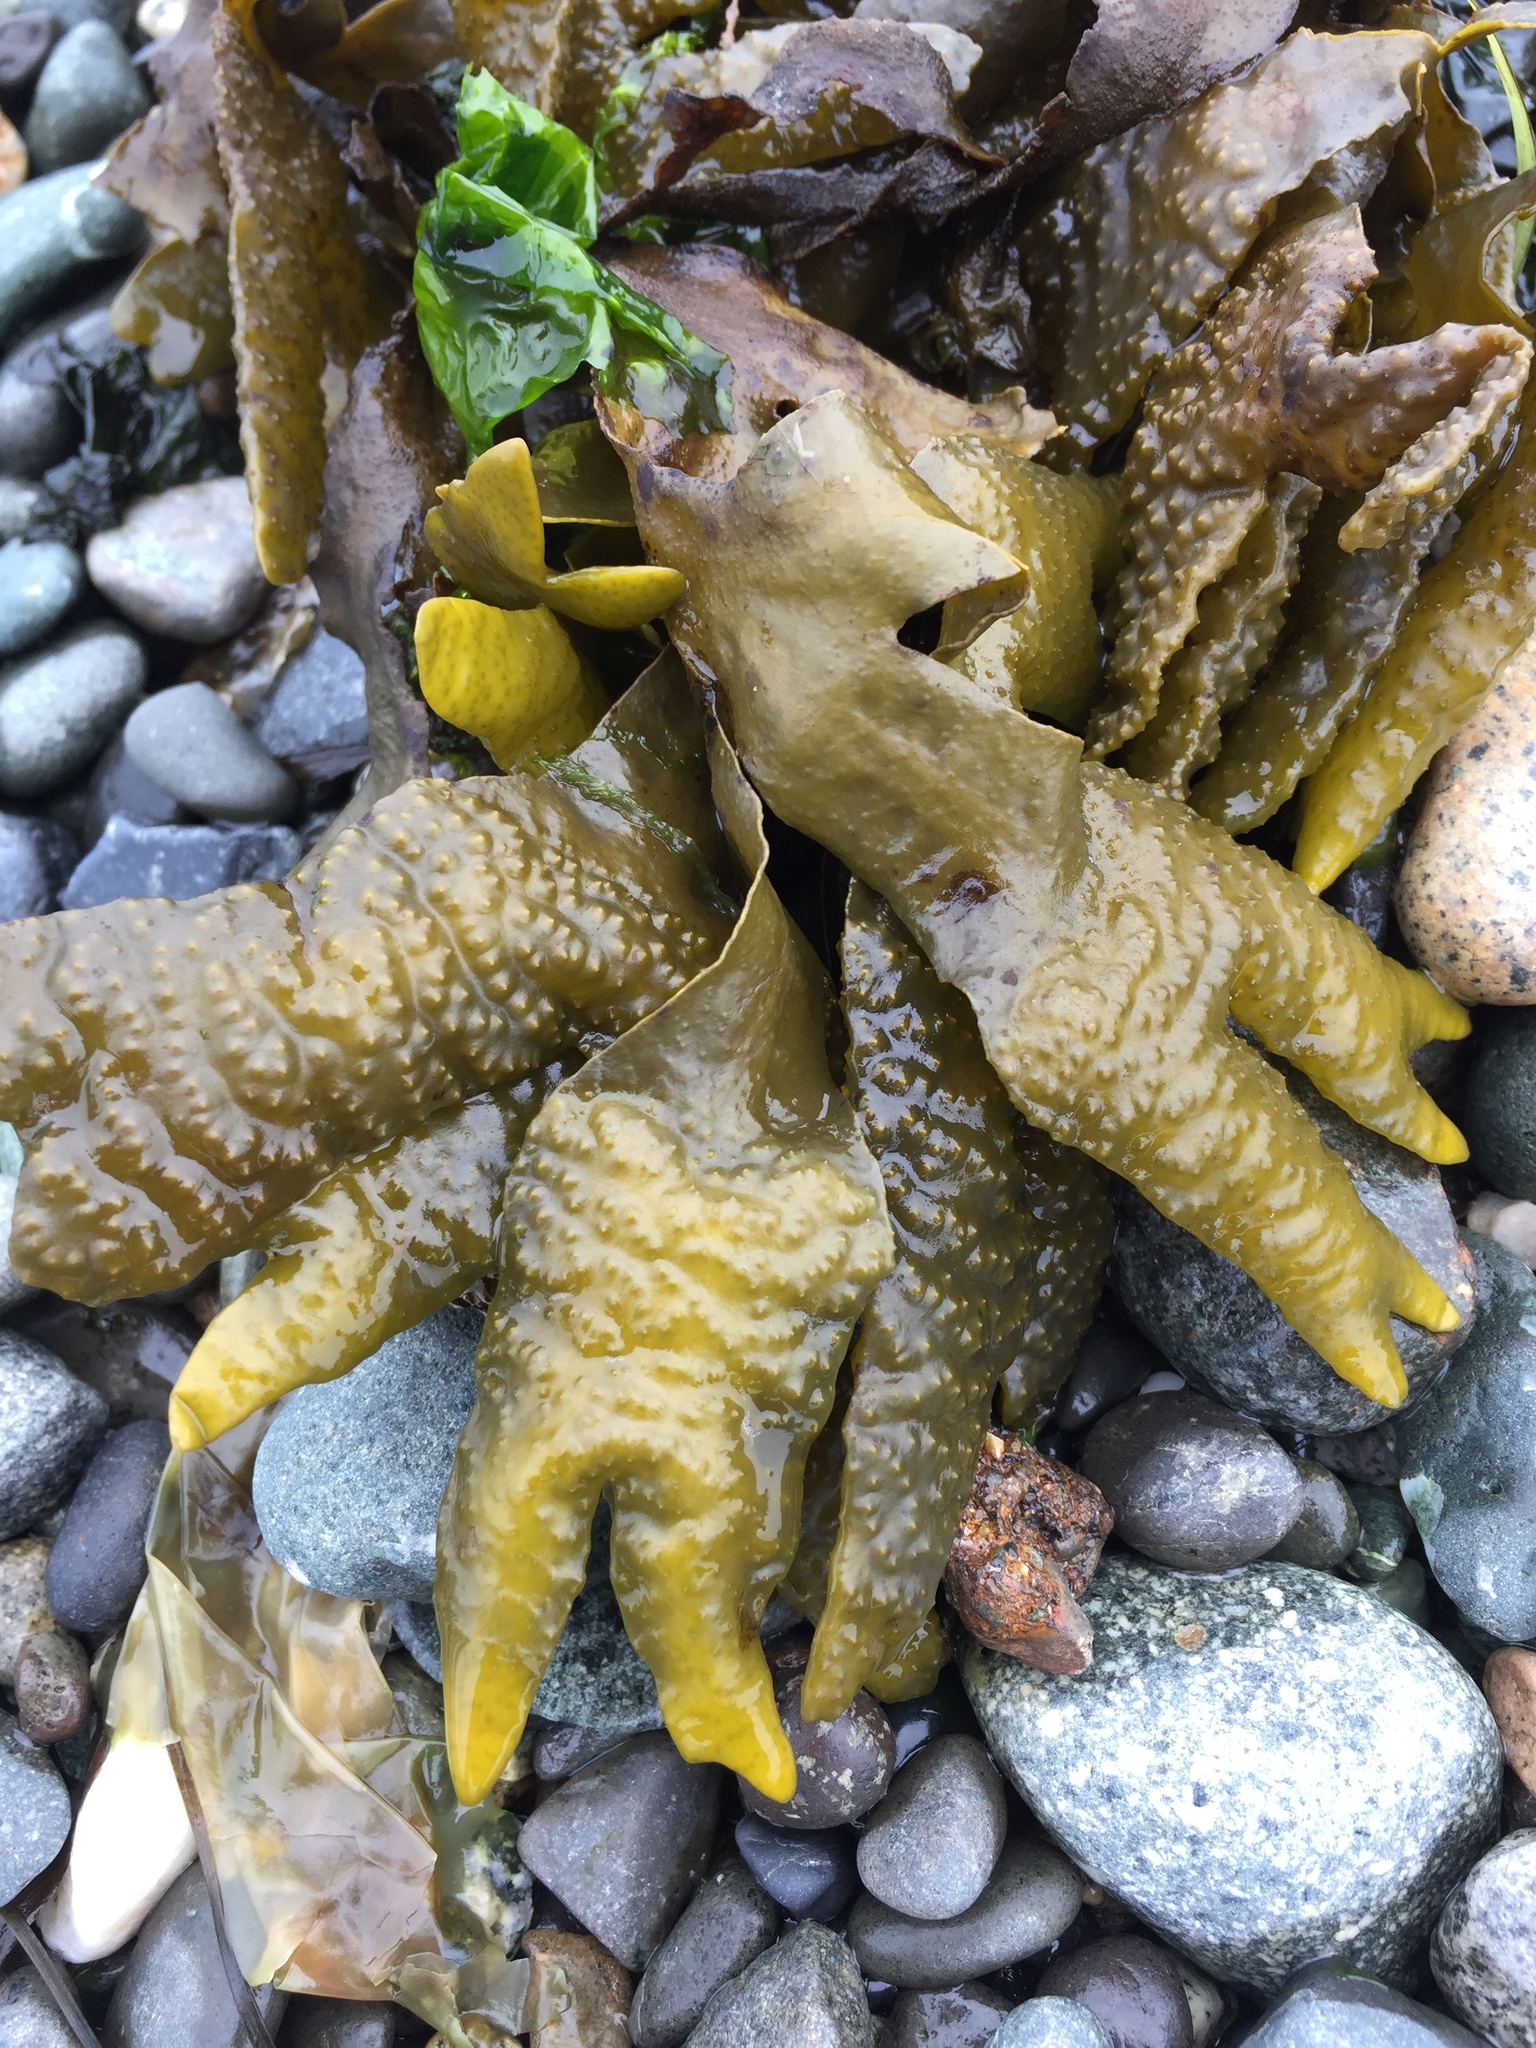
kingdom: Chromista
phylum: Ochrophyta
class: Phaeophyceae
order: Fucales
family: Fucaceae
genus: Fucus
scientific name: Fucus distichus
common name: Rockweed
